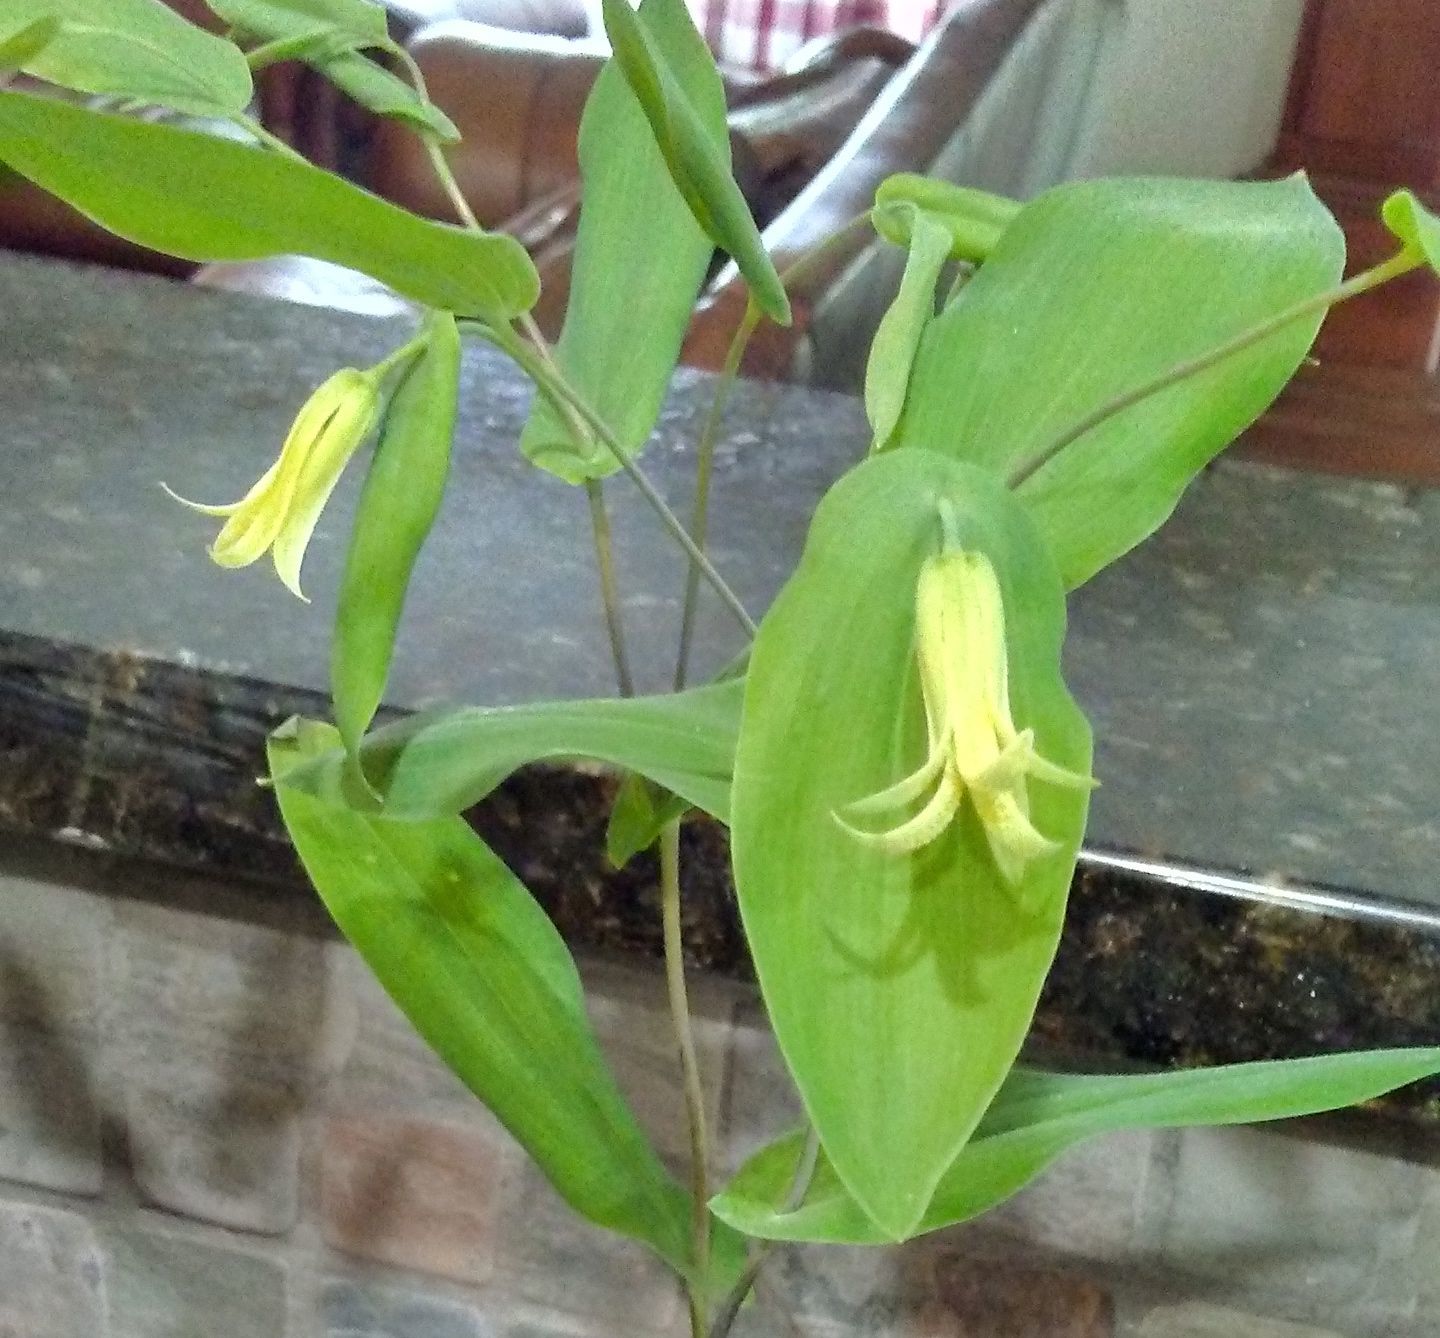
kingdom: Plantae
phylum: Tracheophyta
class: Liliopsida
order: Liliales
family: Colchicaceae
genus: Uvularia
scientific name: Uvularia perfoliata
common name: Perfoliate bellwort
